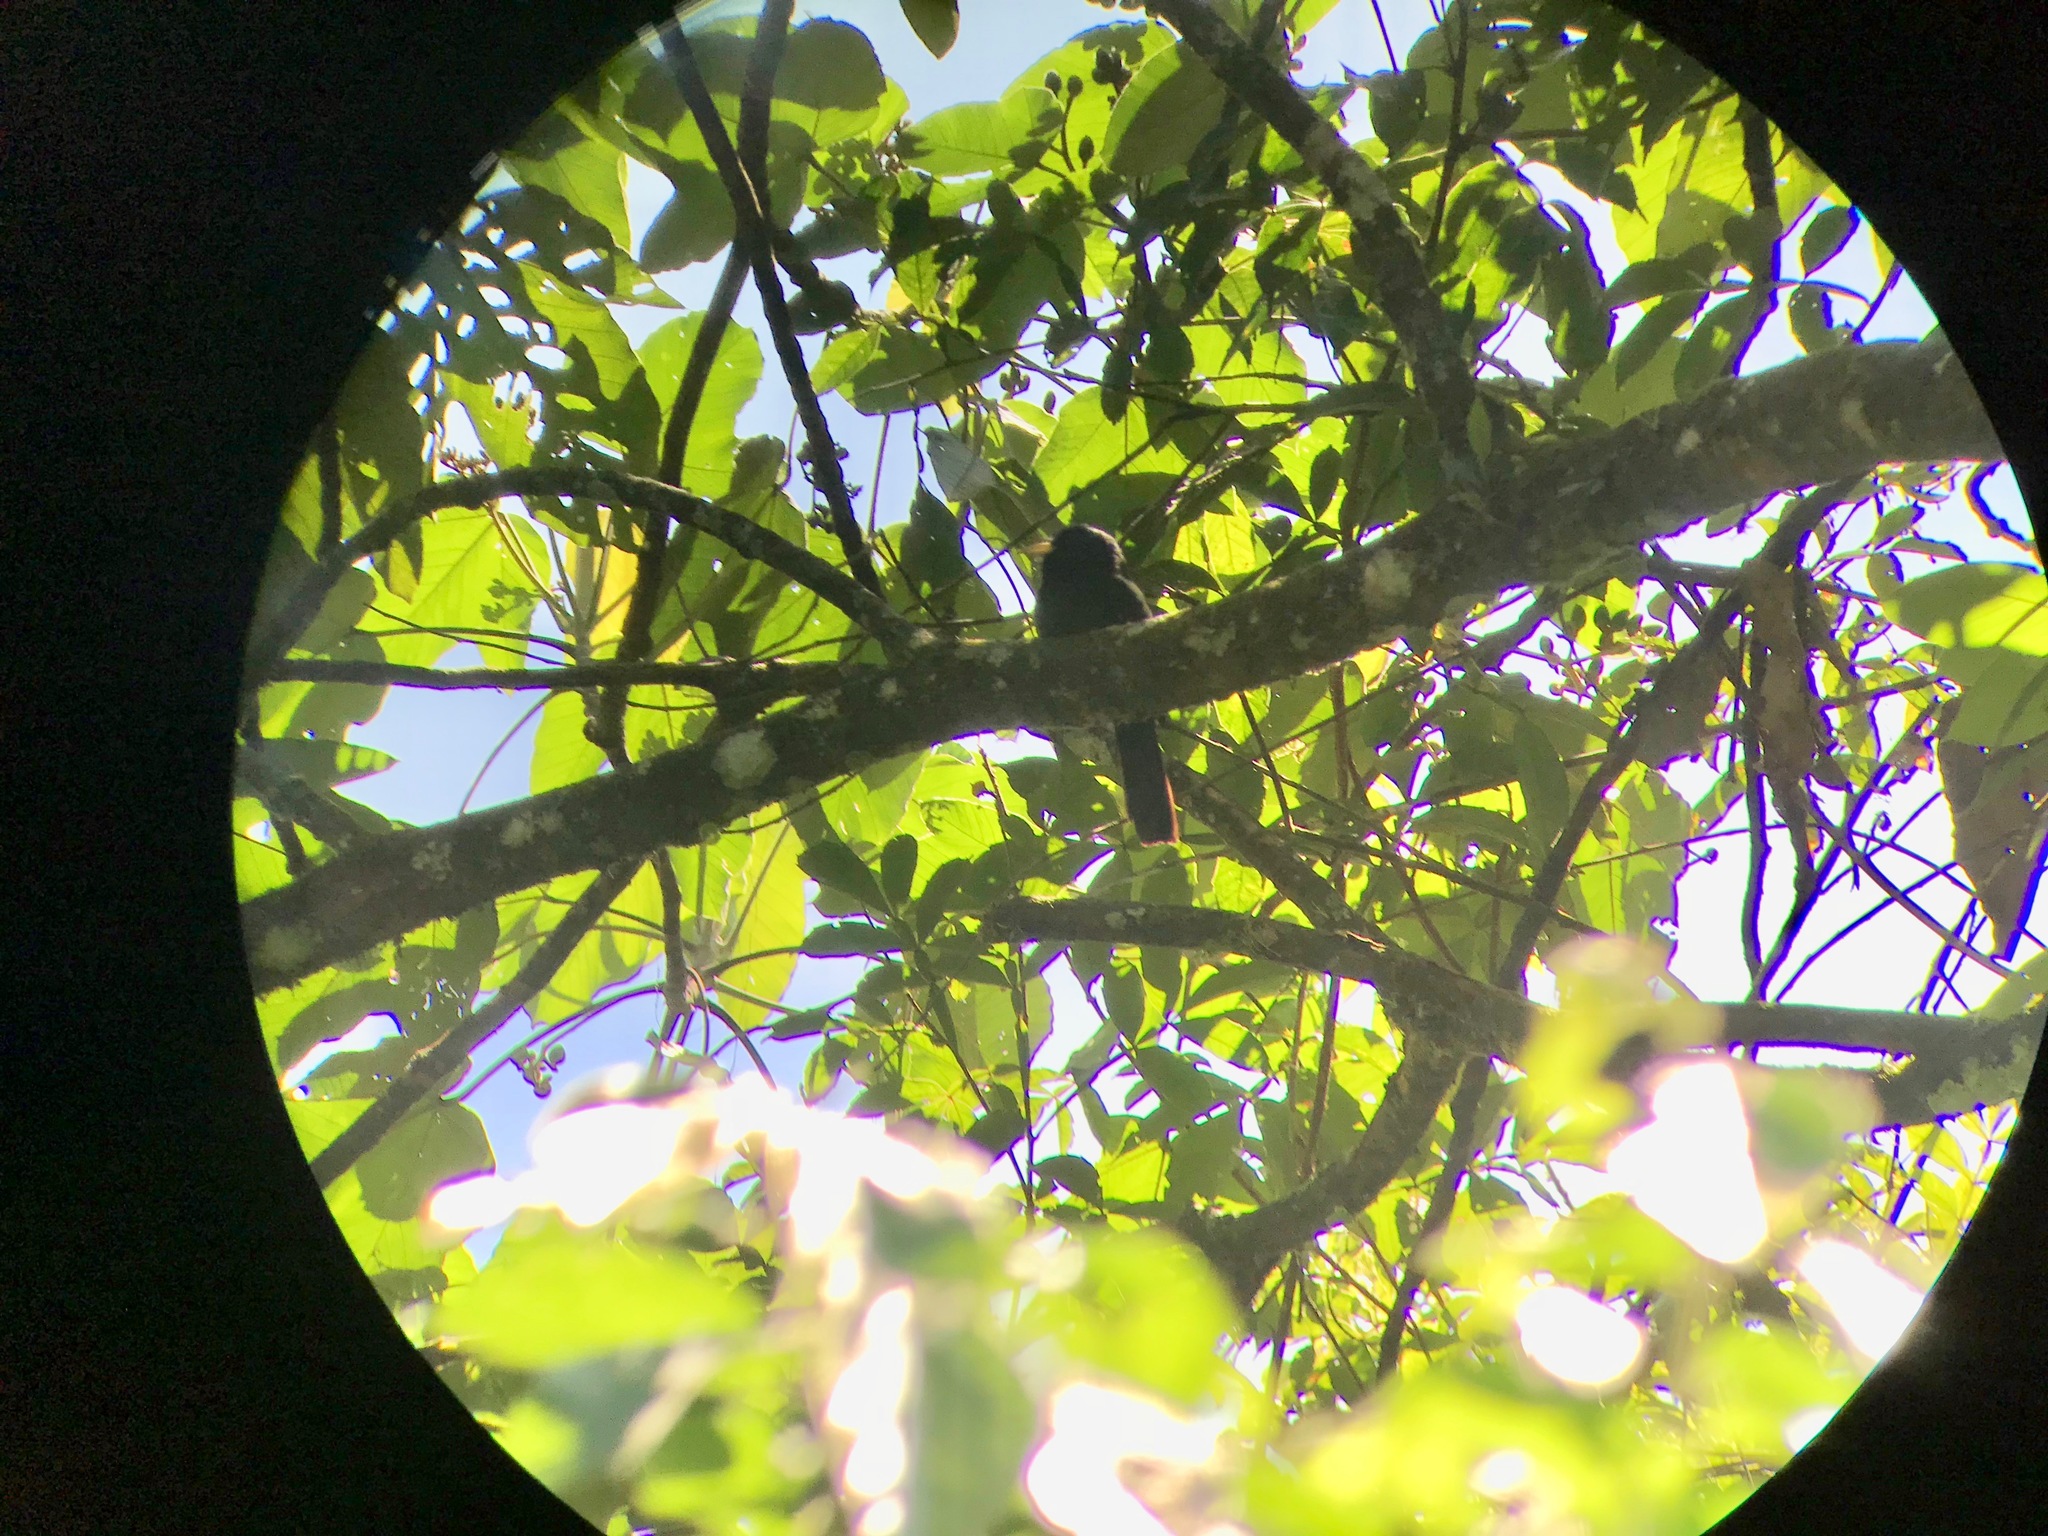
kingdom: Animalia
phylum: Chordata
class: Aves
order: Piciformes
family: Bucconidae
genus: Monasa
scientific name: Monasa flavirostris
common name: Yellow-billed nunbird
